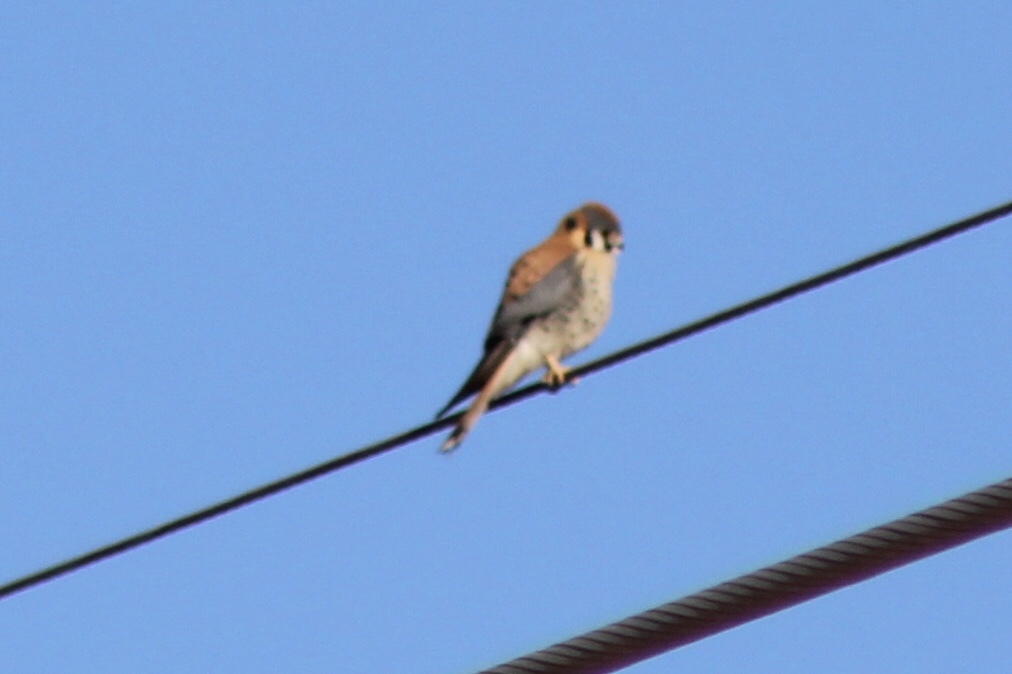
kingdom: Animalia
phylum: Chordata
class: Aves
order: Falconiformes
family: Falconidae
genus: Falco
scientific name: Falco sparverius
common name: American kestrel
